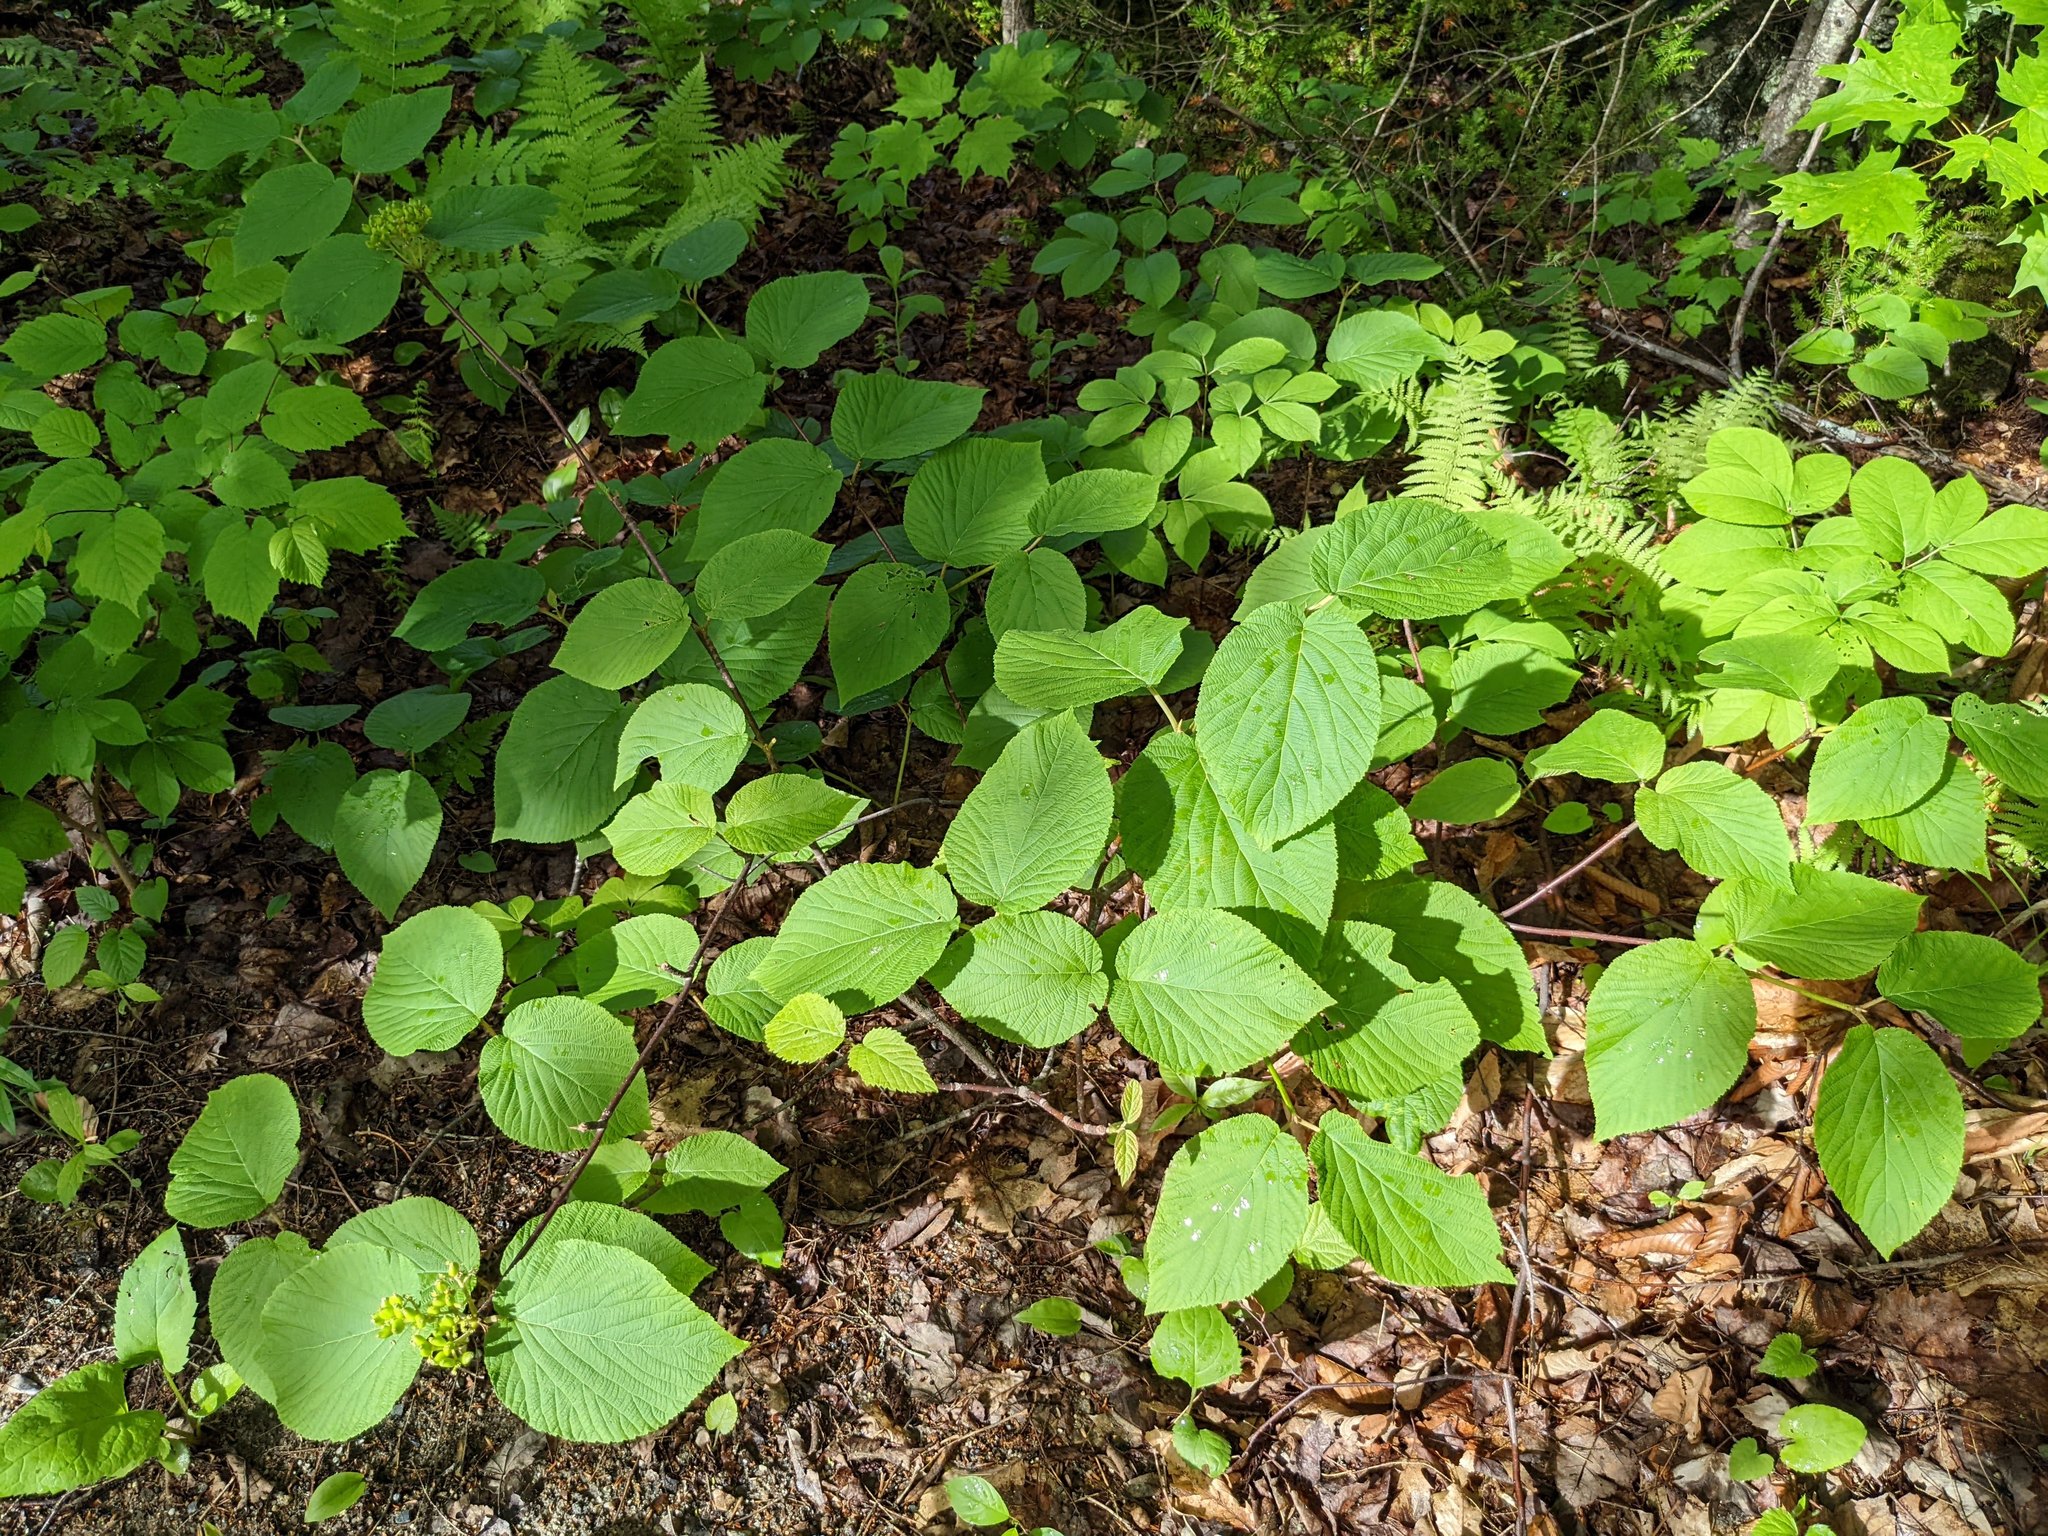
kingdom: Plantae
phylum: Tracheophyta
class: Magnoliopsida
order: Dipsacales
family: Viburnaceae
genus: Viburnum
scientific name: Viburnum lantanoides
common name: Hobblebush
